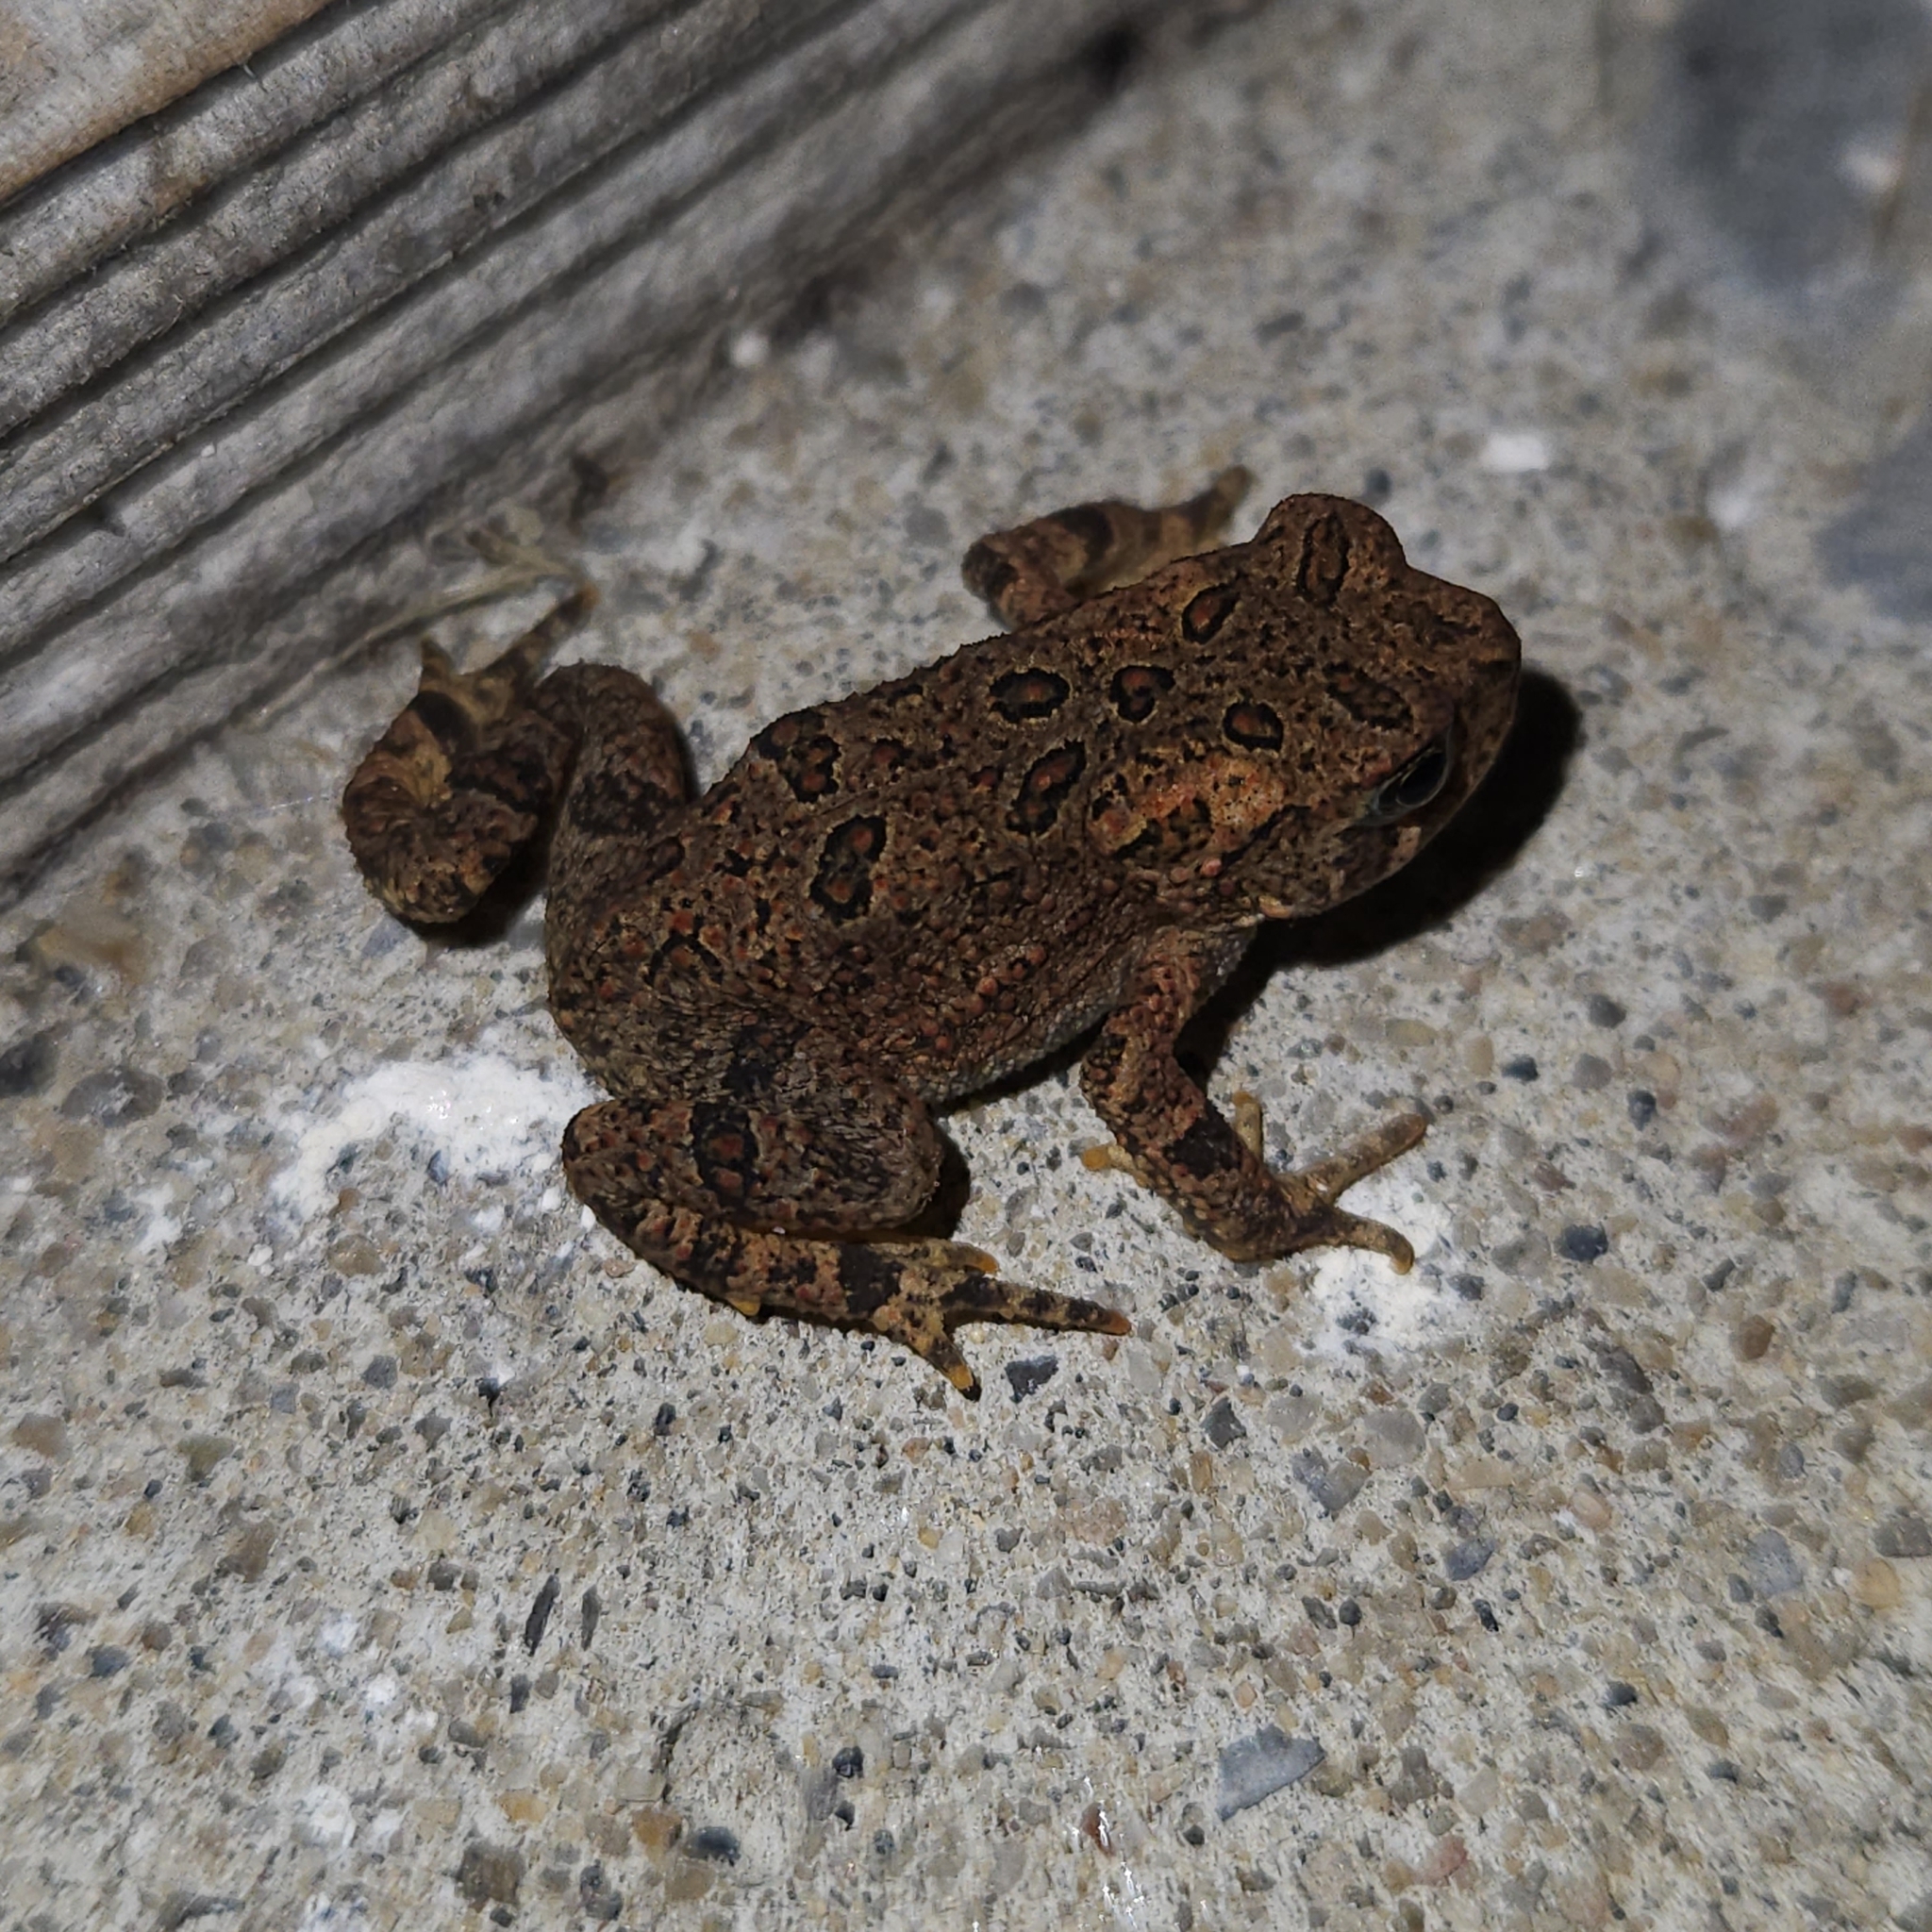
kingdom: Animalia
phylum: Chordata
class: Amphibia
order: Anura
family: Bufonidae
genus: Anaxyrus
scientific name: Anaxyrus americanus
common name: American toad
